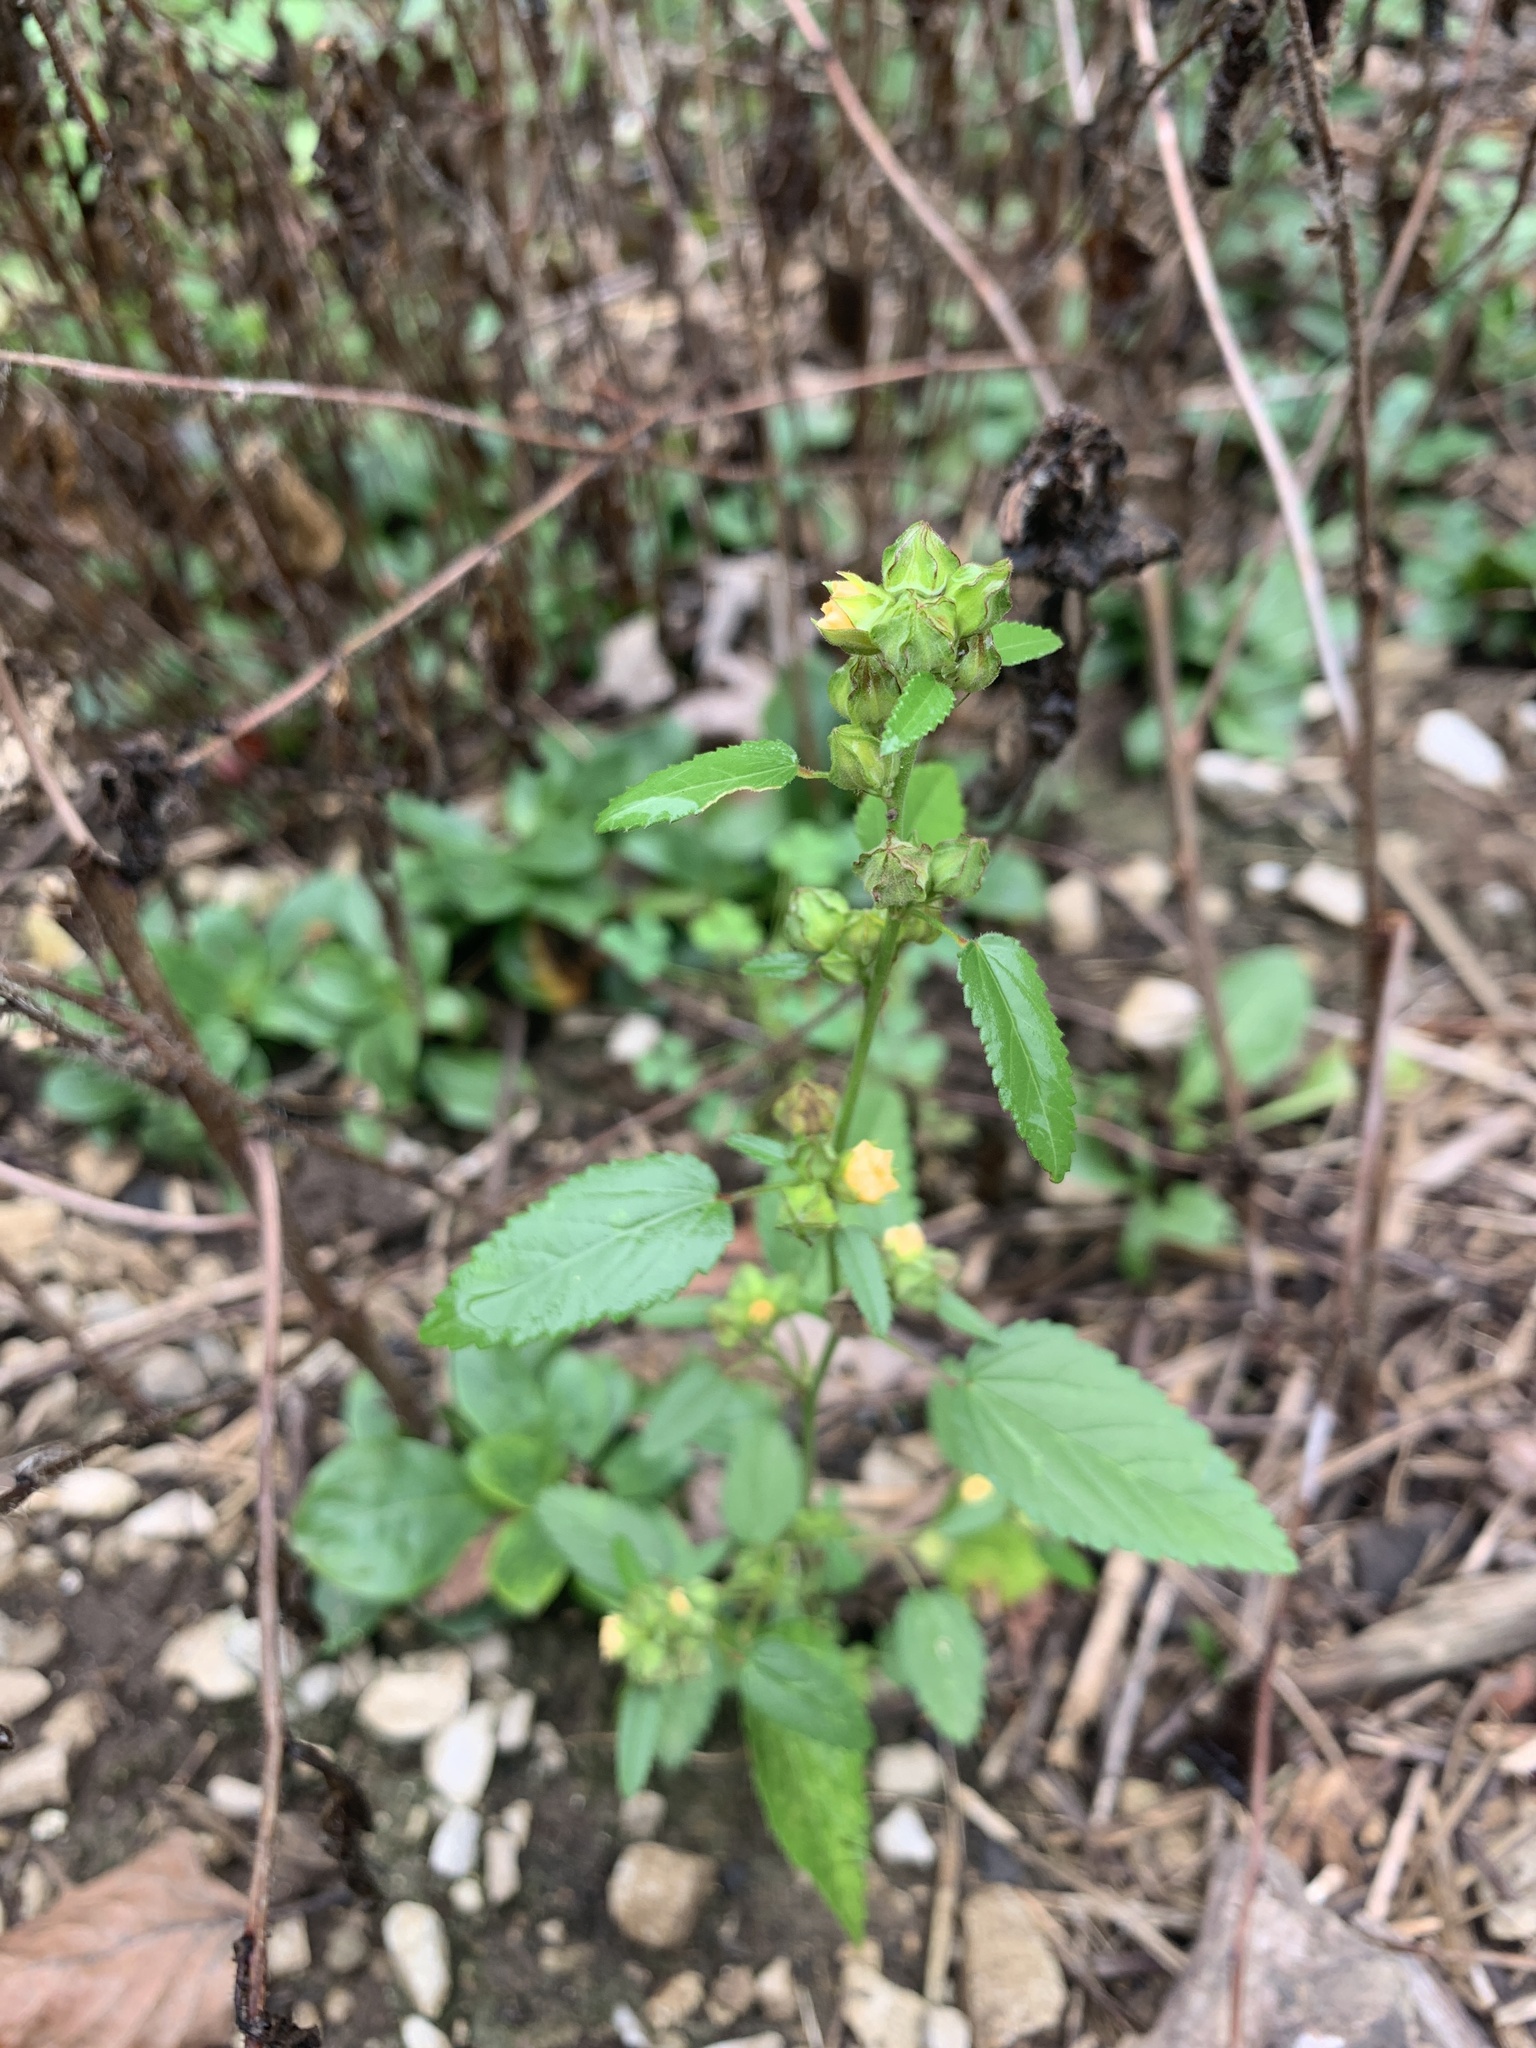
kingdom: Plantae
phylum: Tracheophyta
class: Magnoliopsida
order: Malvales
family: Malvaceae
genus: Sida
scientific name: Sida spinosa
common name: Prickly fanpetals
